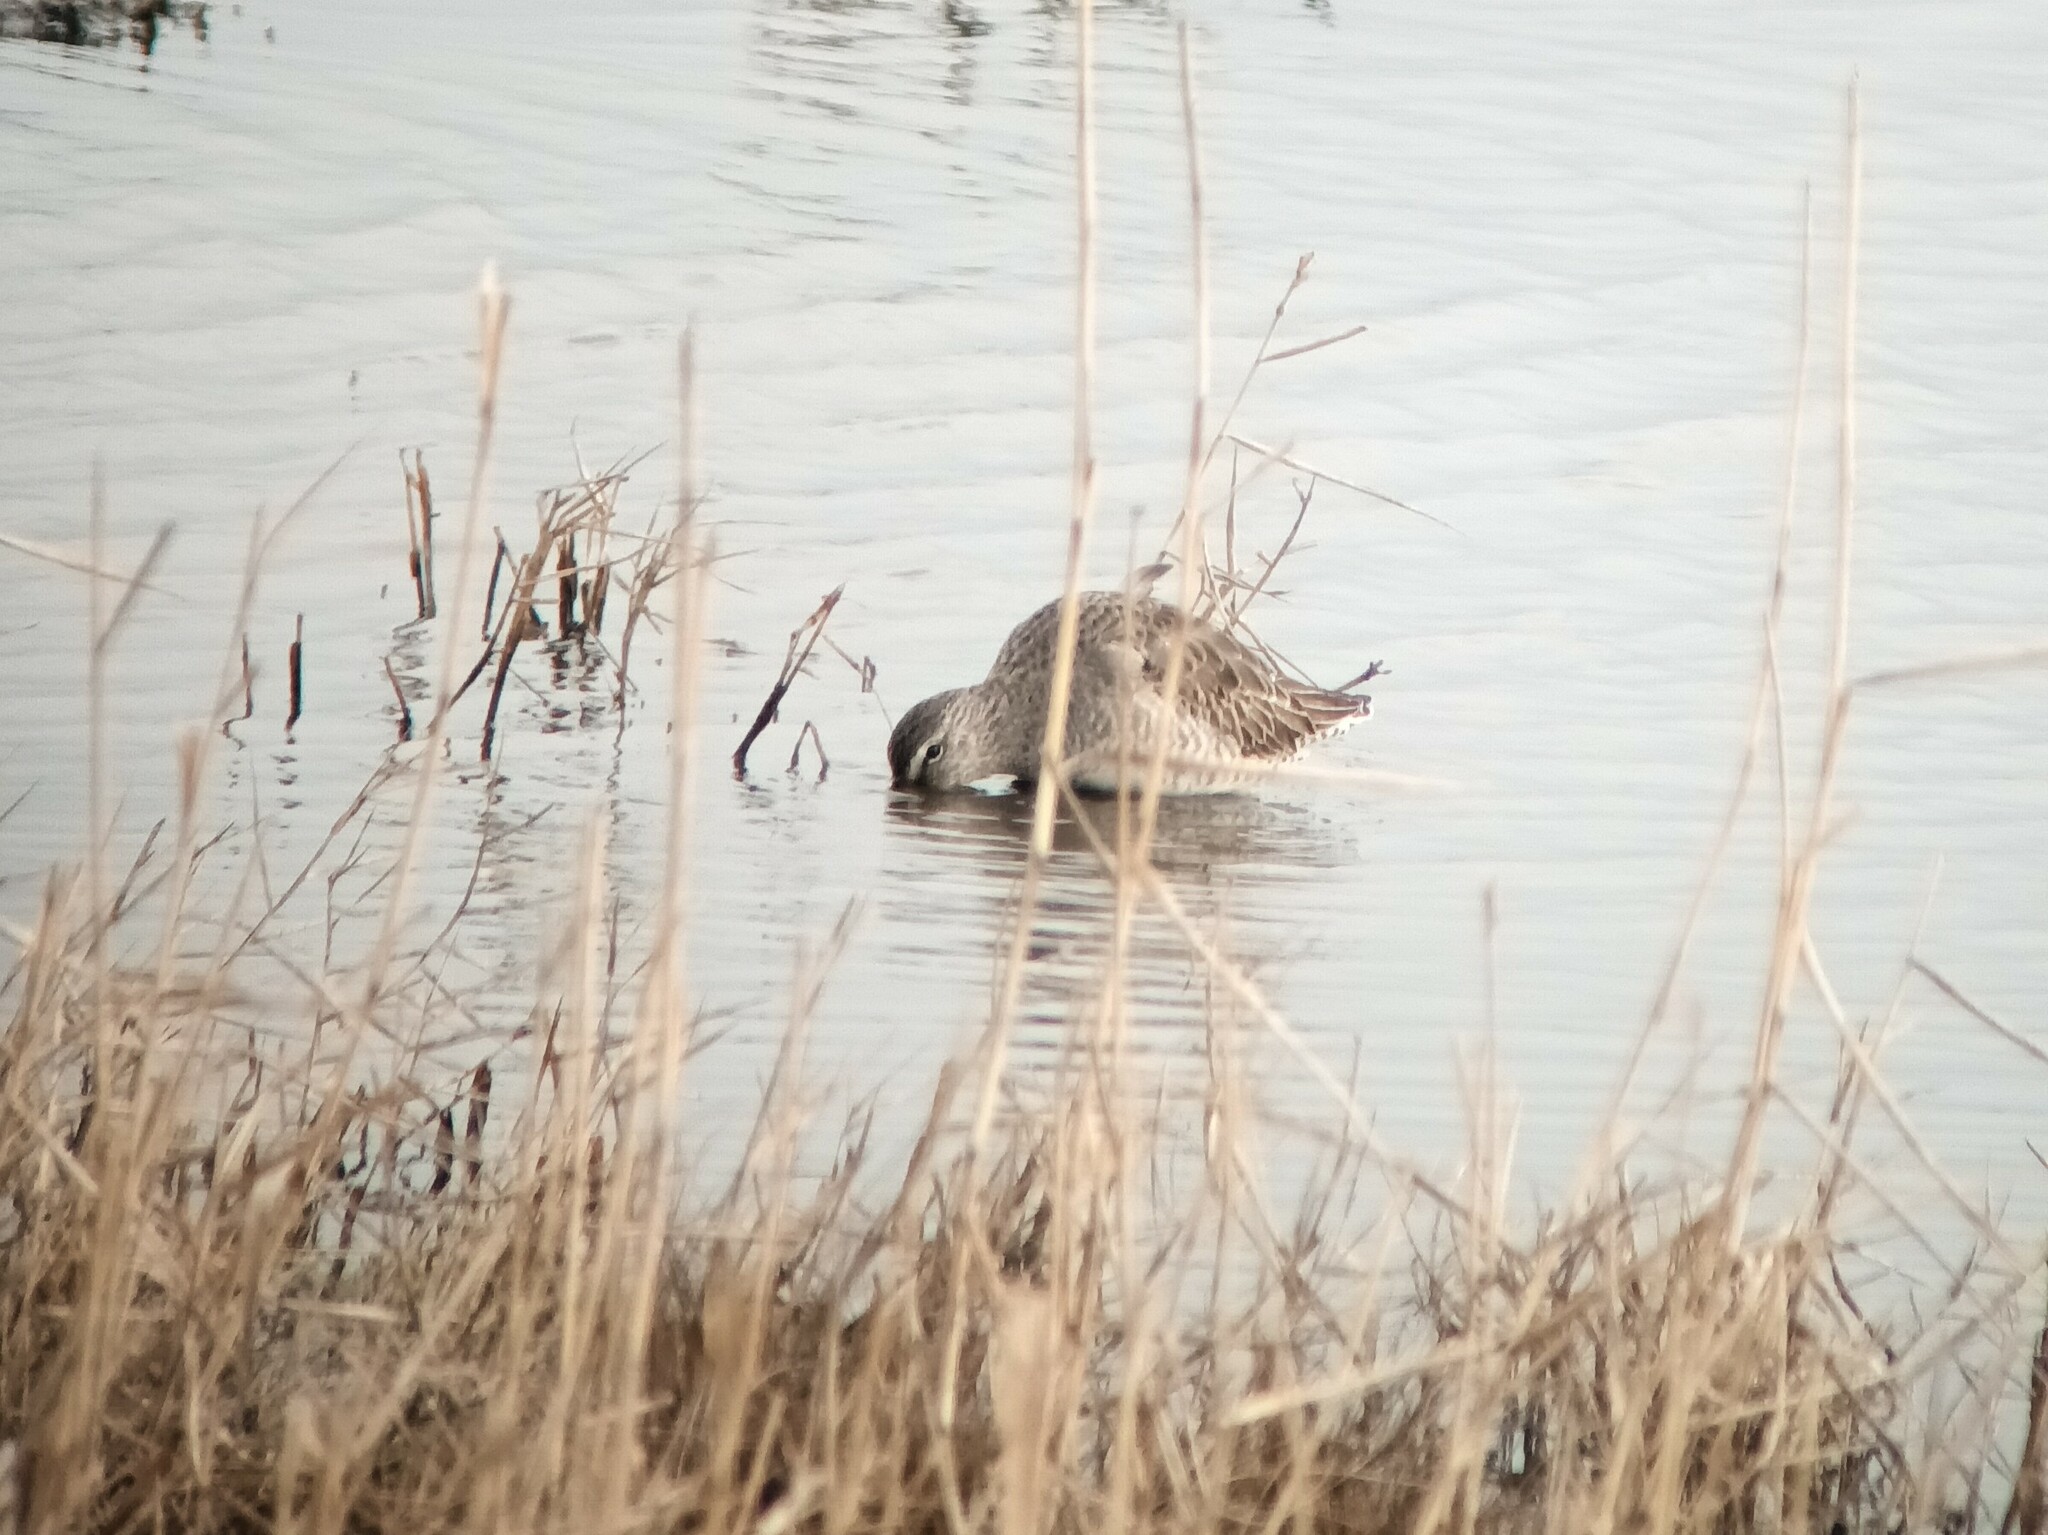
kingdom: Animalia
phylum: Chordata
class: Aves
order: Charadriiformes
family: Scolopacidae
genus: Limnodromus
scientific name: Limnodromus scolopaceus
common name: Long-billed dowitcher
